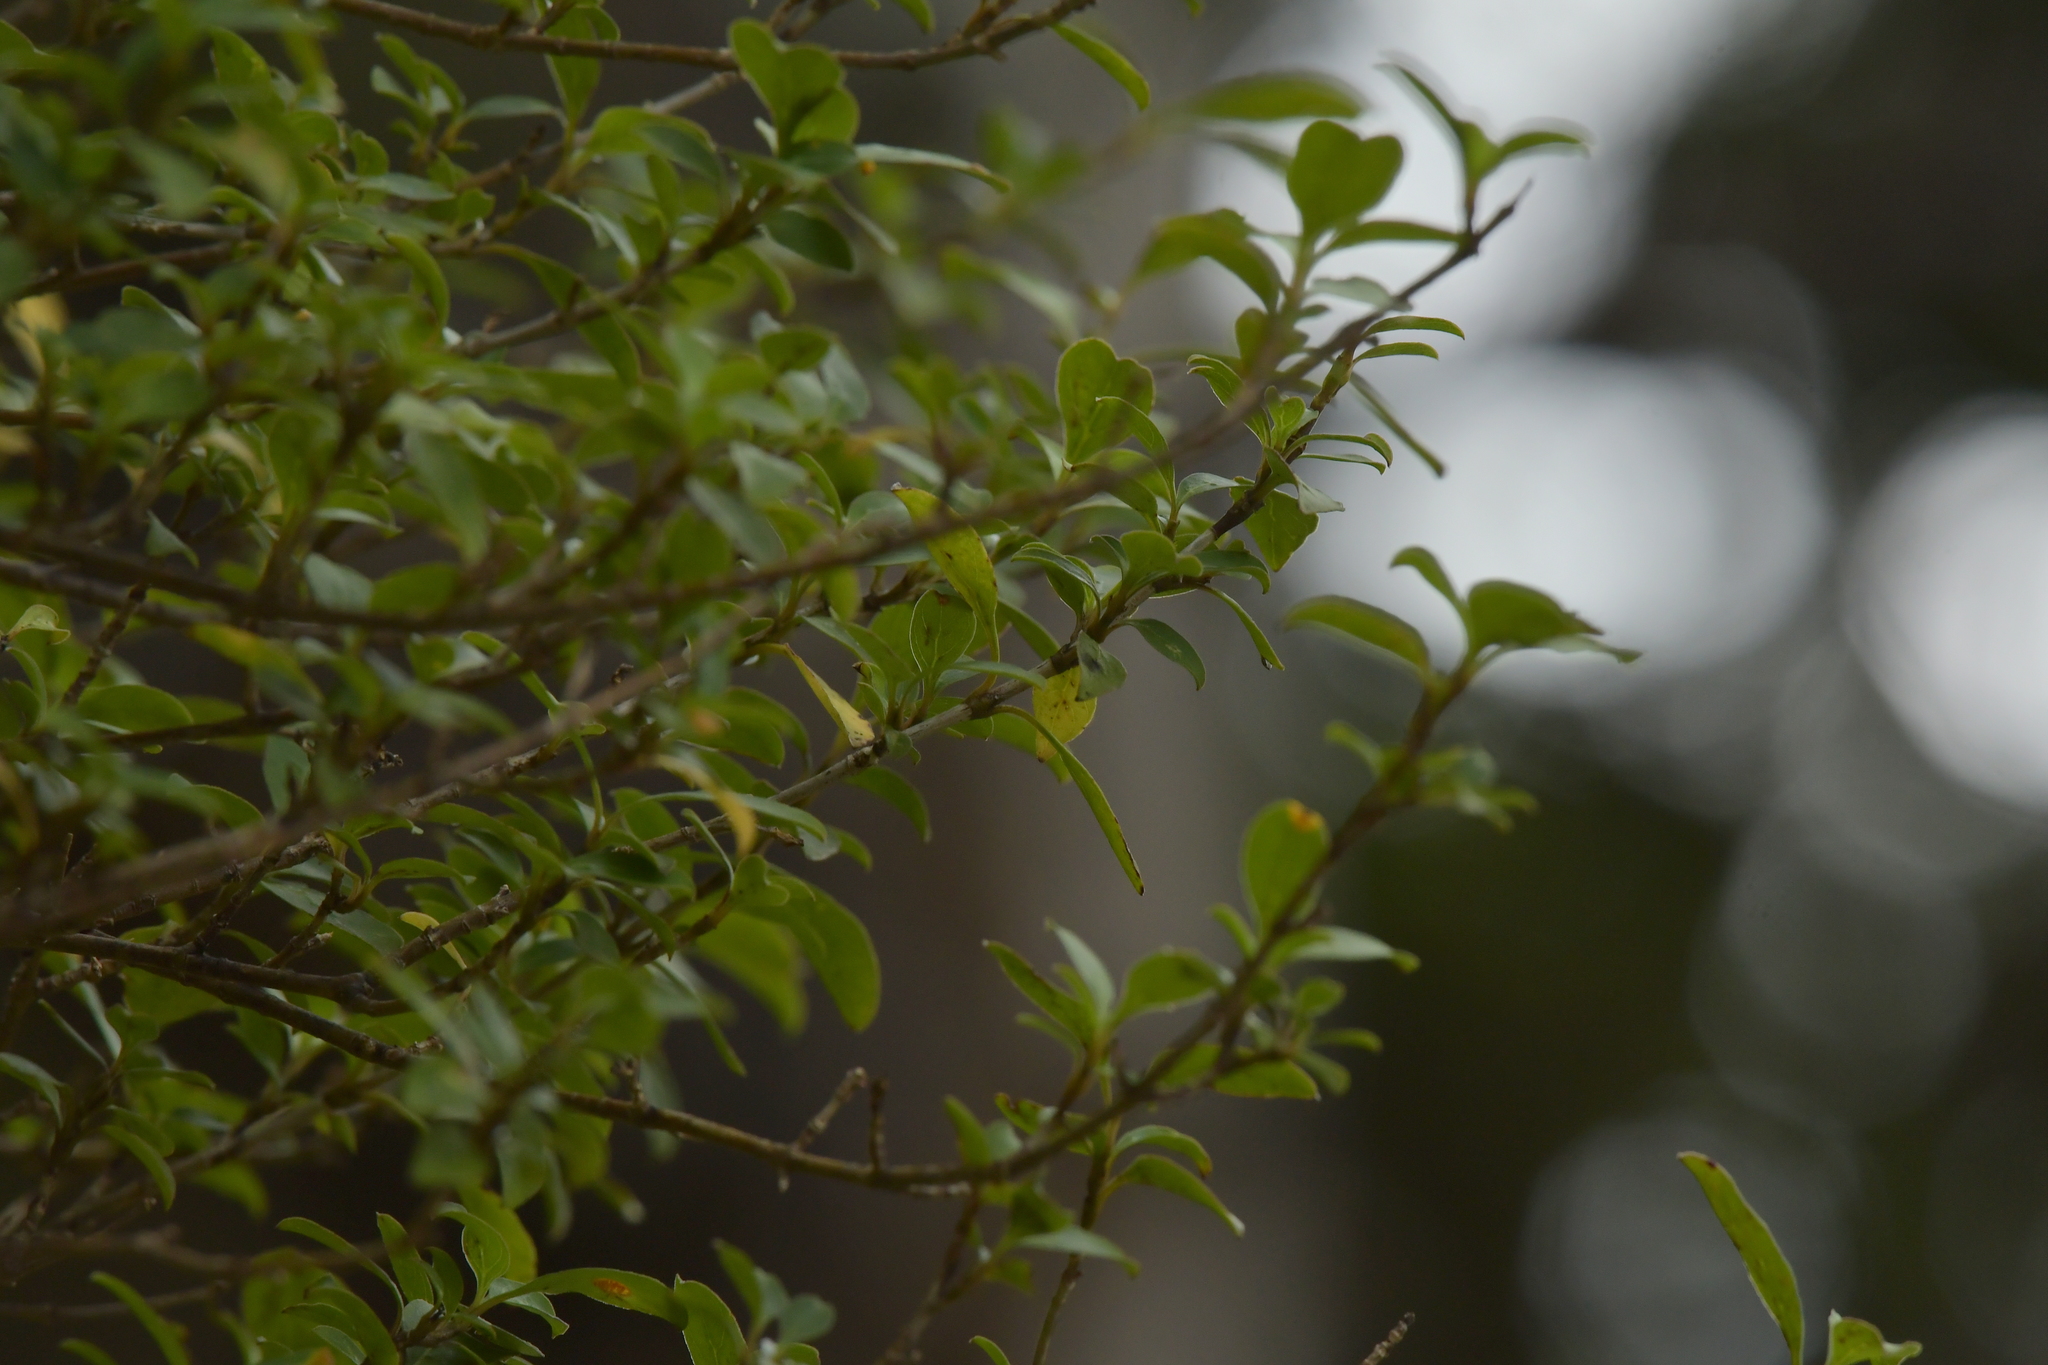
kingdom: Plantae
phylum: Tracheophyta
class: Magnoliopsida
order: Gentianales
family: Rubiaceae
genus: Coprosma
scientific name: Coprosma foetidissima
